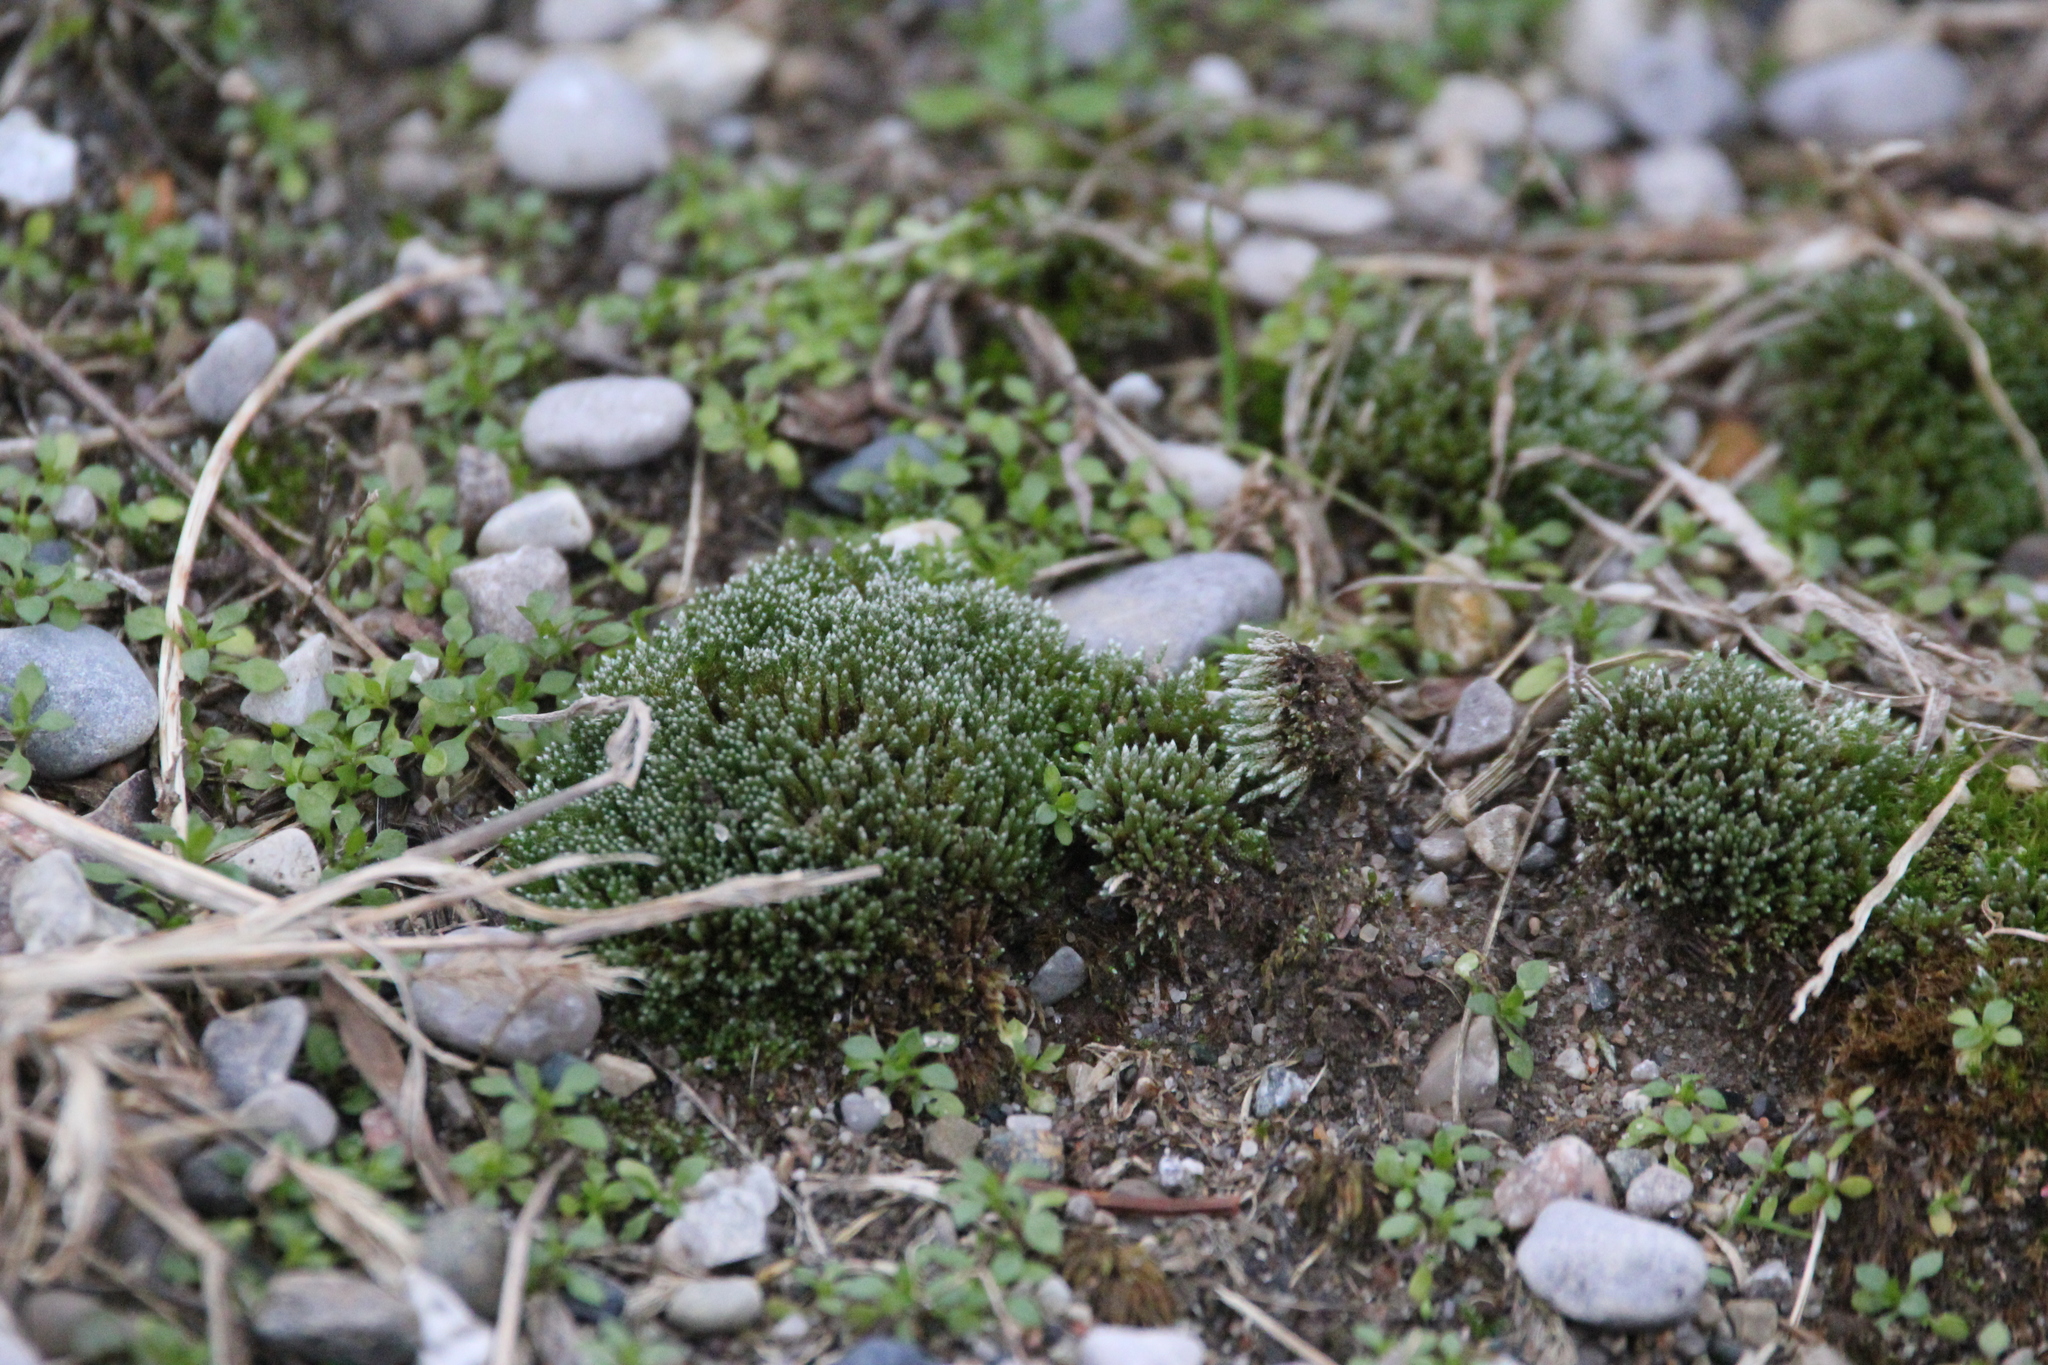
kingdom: Plantae
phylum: Bryophyta
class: Bryopsida
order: Bryales
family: Bryaceae
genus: Bryum
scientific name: Bryum argenteum
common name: Silver-moss
